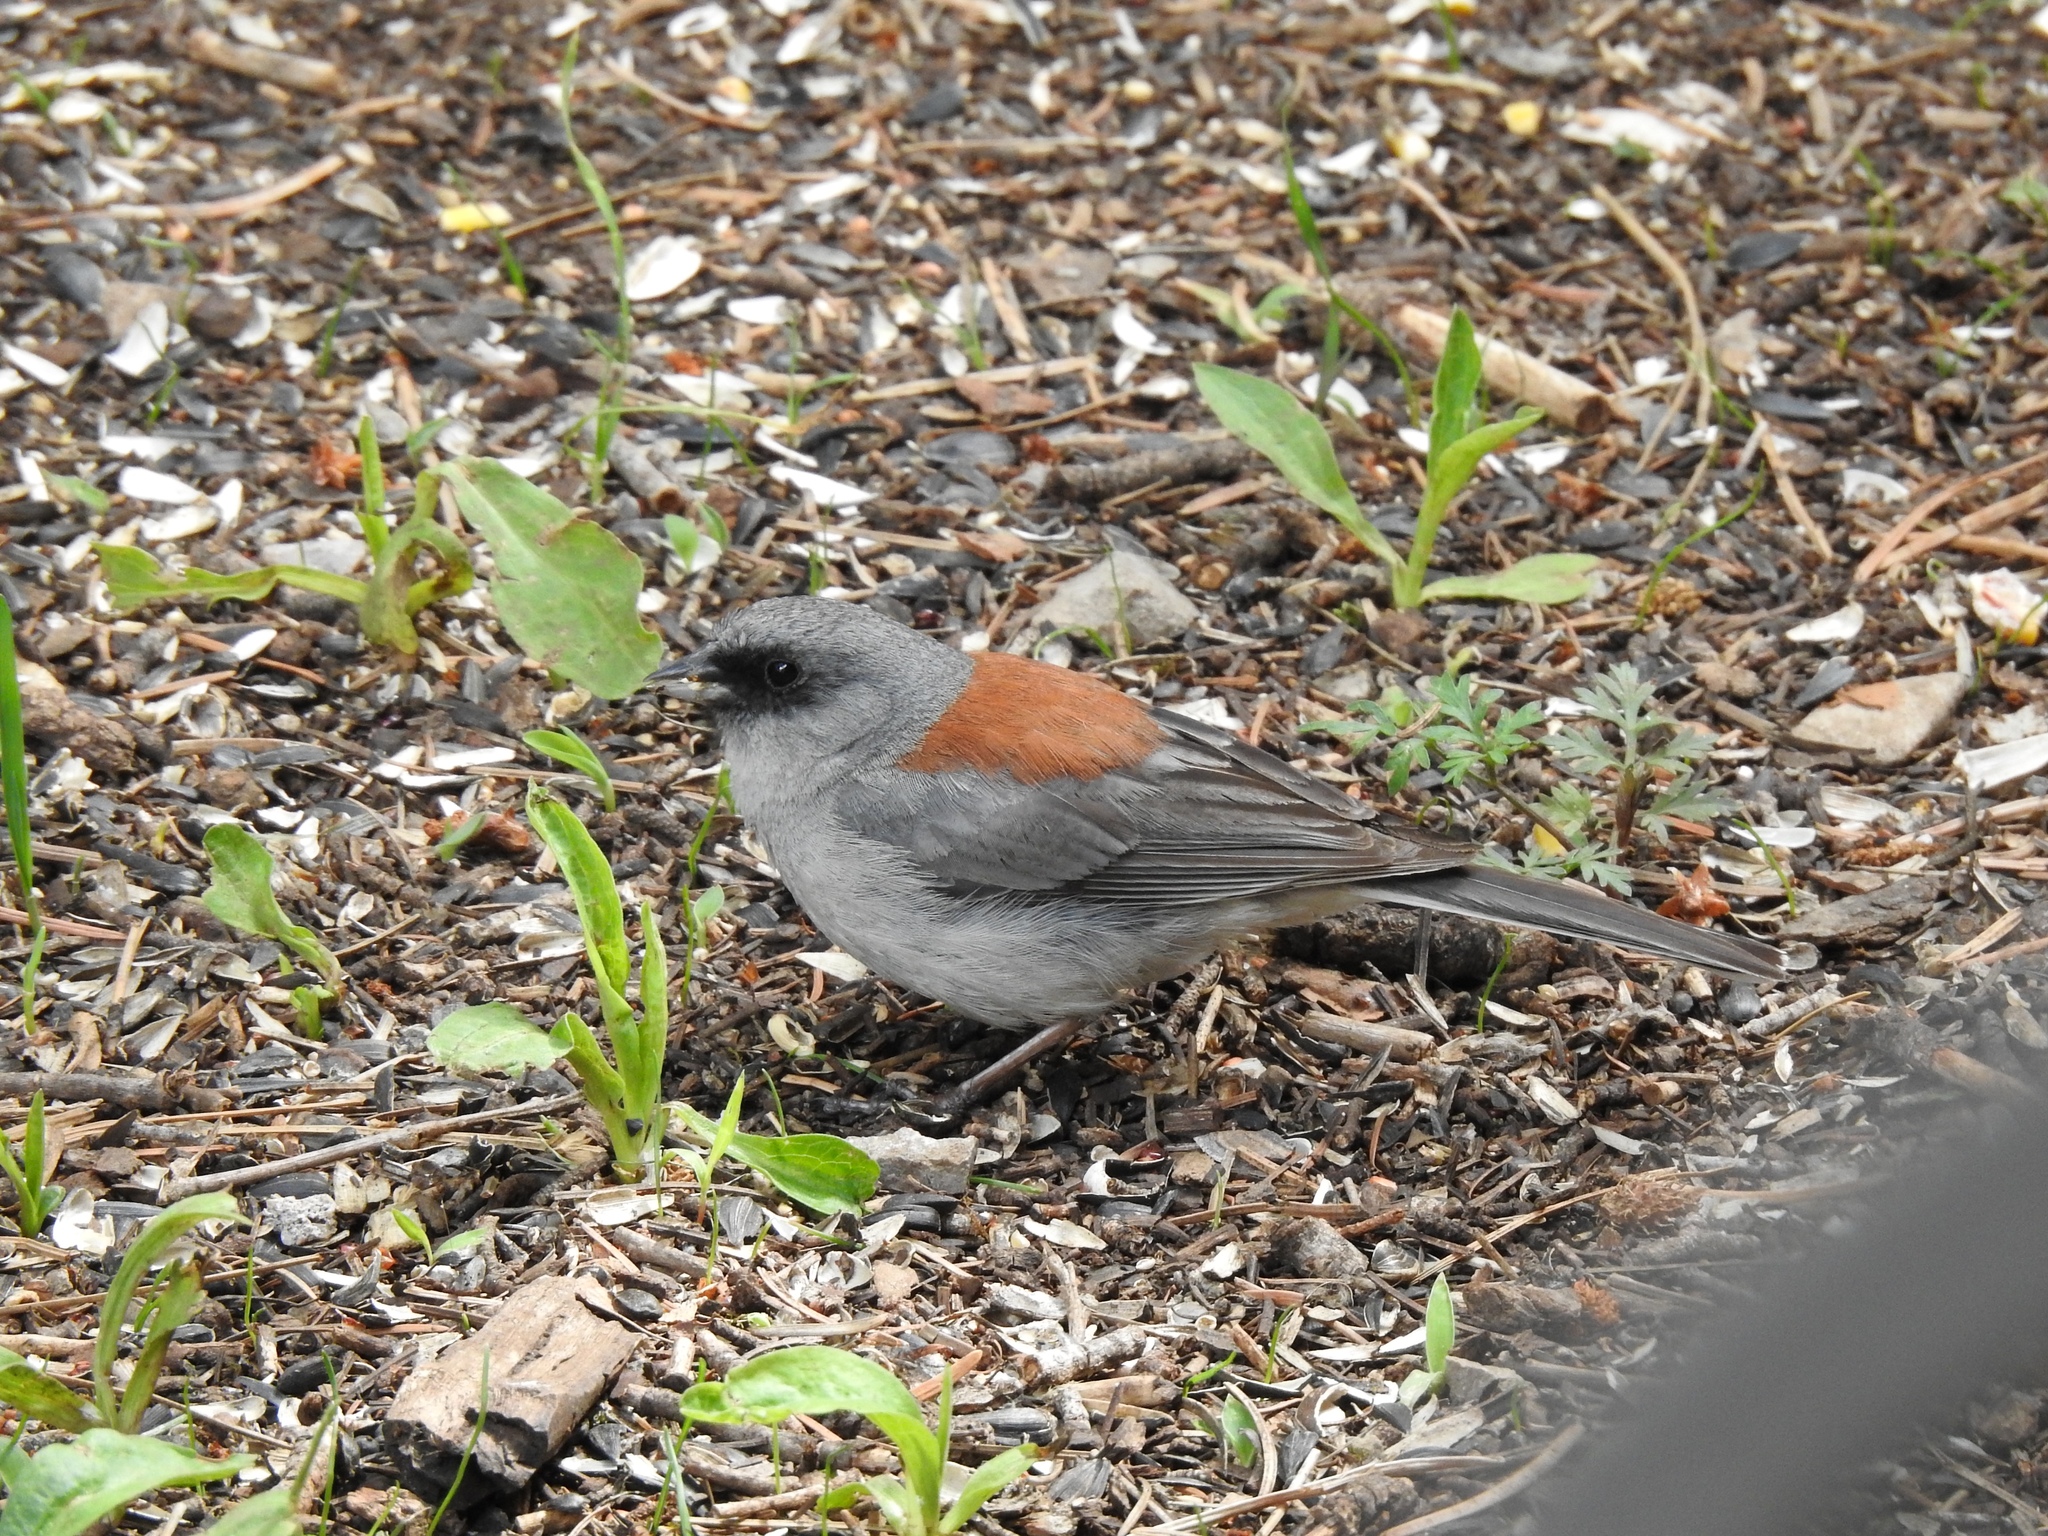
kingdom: Animalia
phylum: Chordata
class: Aves
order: Passeriformes
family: Passerellidae
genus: Junco
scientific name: Junco hyemalis
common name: Dark-eyed junco
